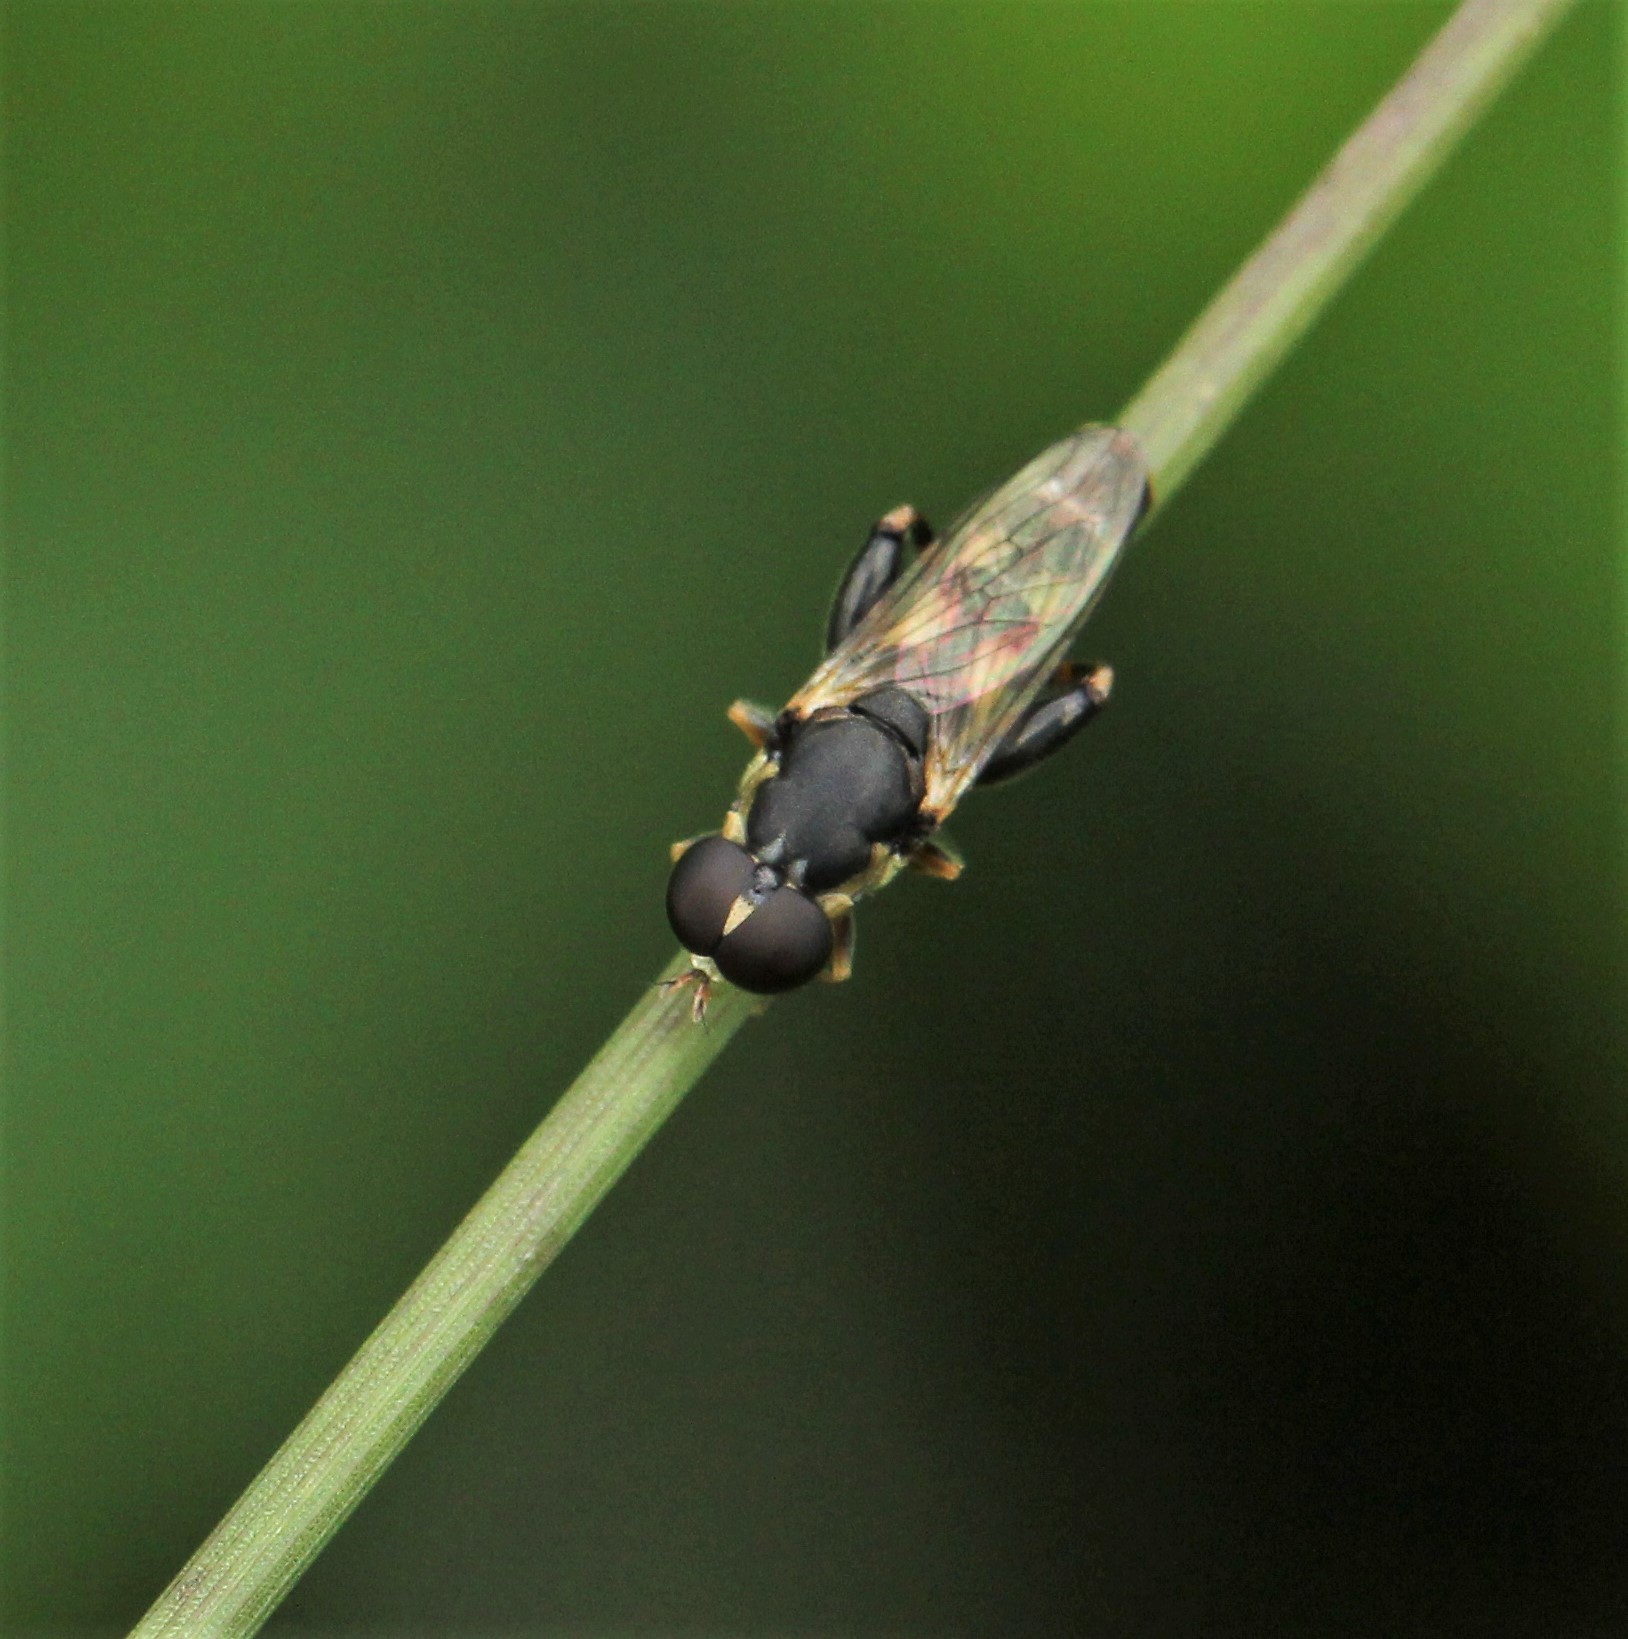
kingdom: Animalia
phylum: Arthropoda
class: Insecta
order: Diptera
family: Syrphidae
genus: Syritta
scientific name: Syritta pipiens
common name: Hover fly
